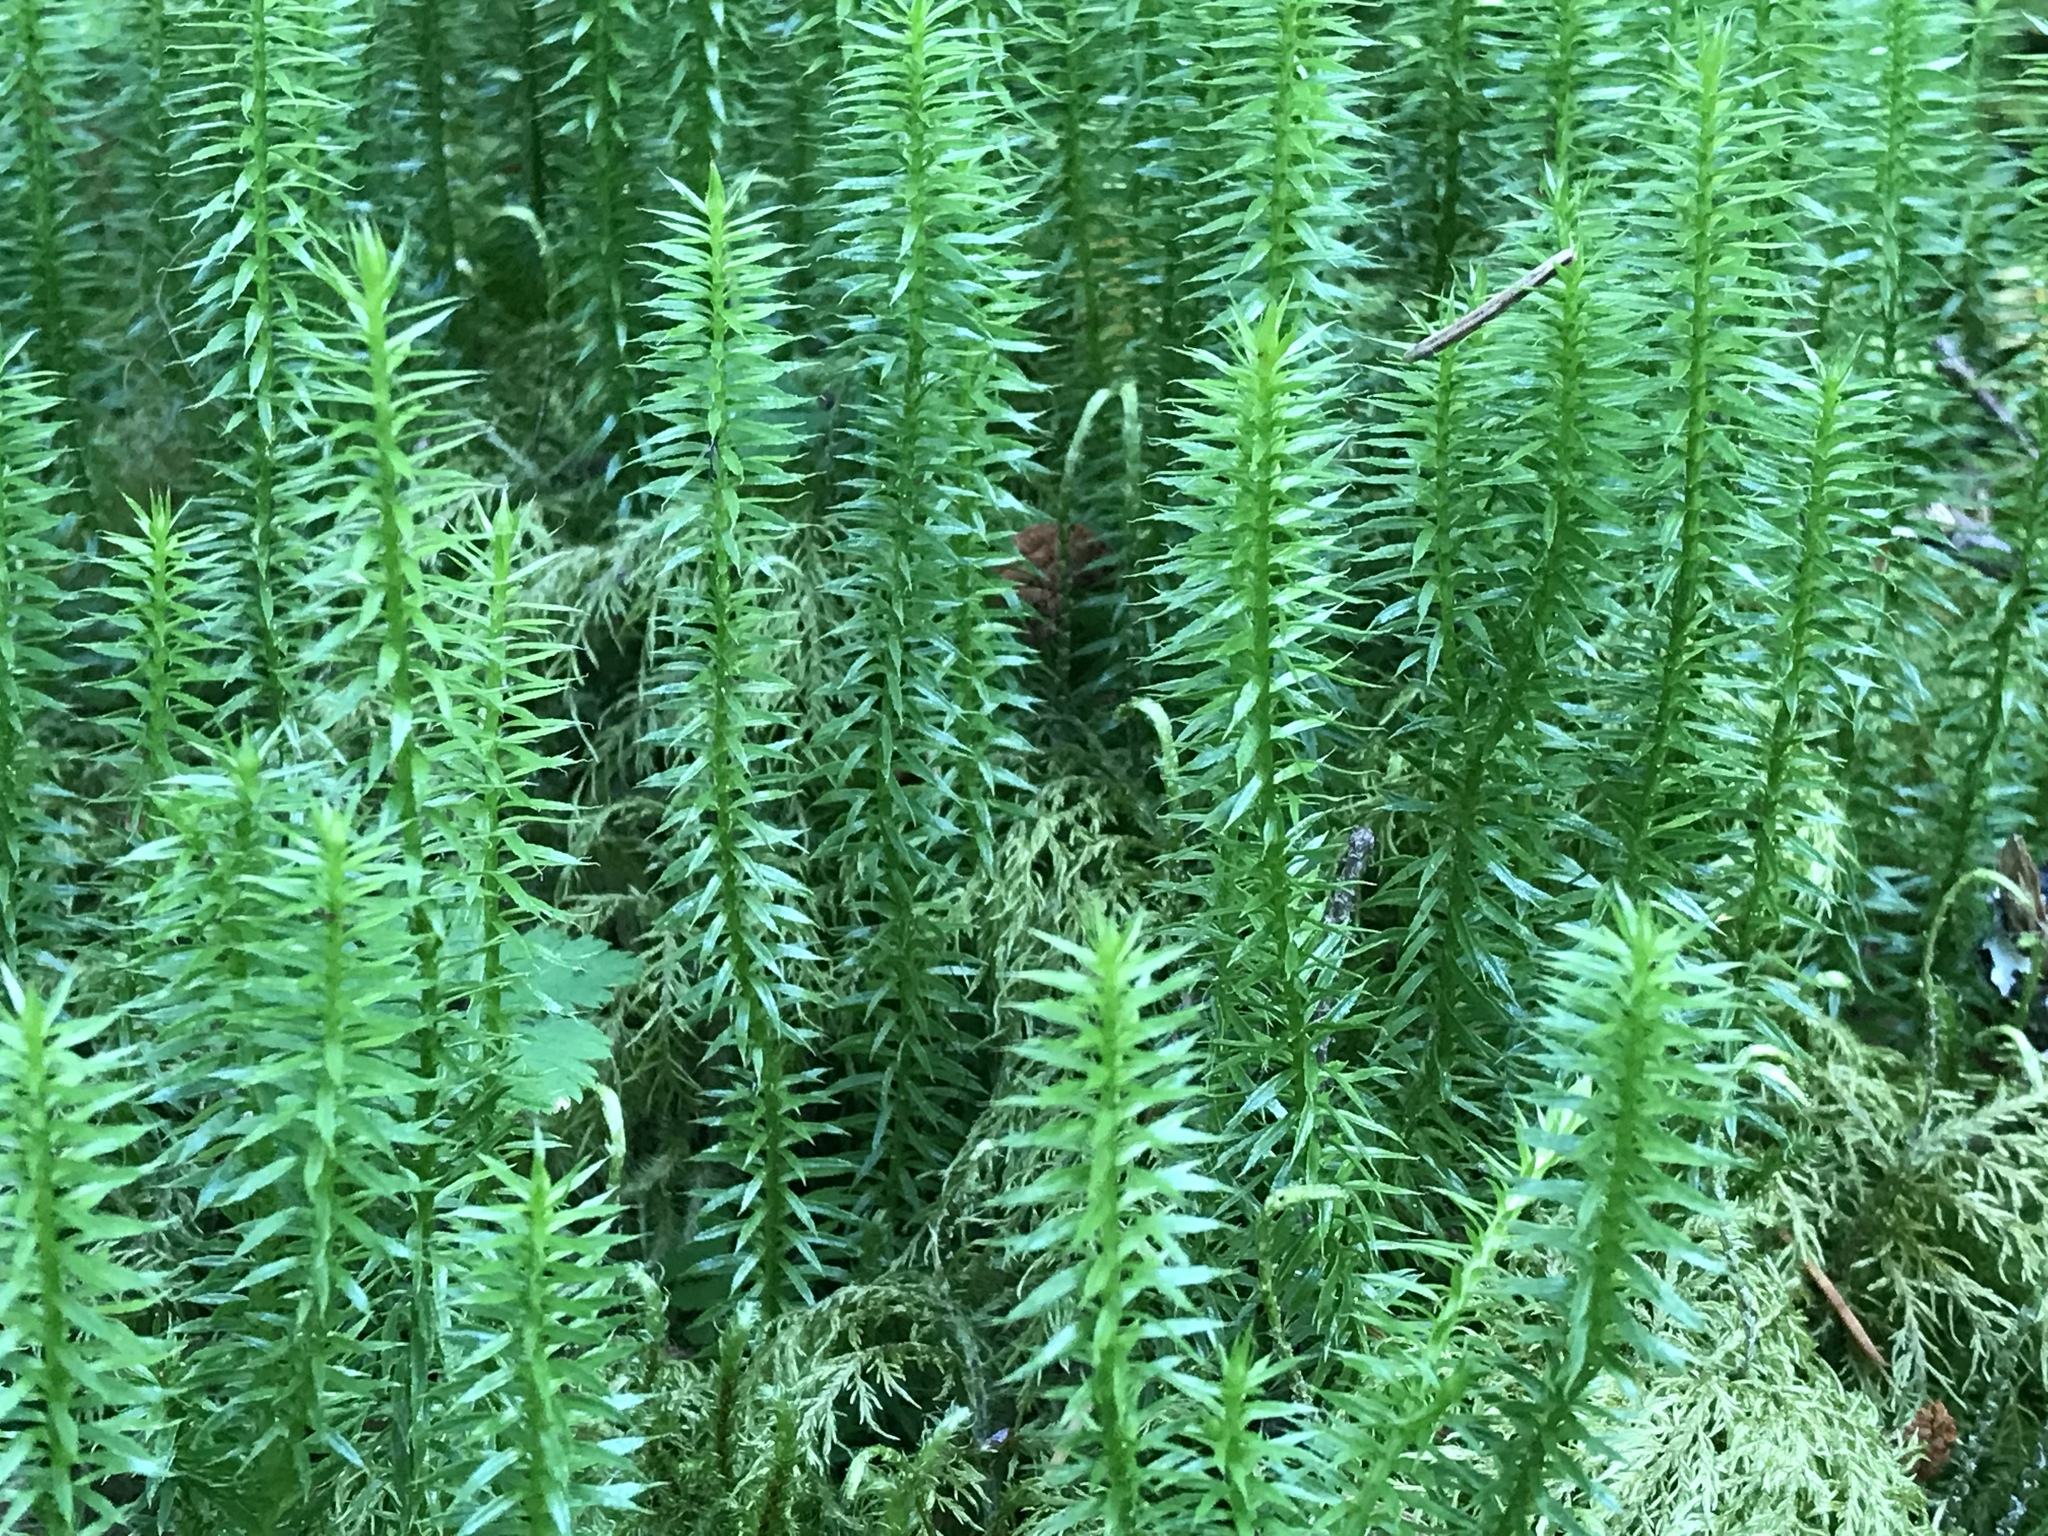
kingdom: Plantae
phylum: Tracheophyta
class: Lycopodiopsida
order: Lycopodiales
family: Lycopodiaceae
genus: Spinulum
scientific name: Spinulum annotinum
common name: Interrupted club-moss
